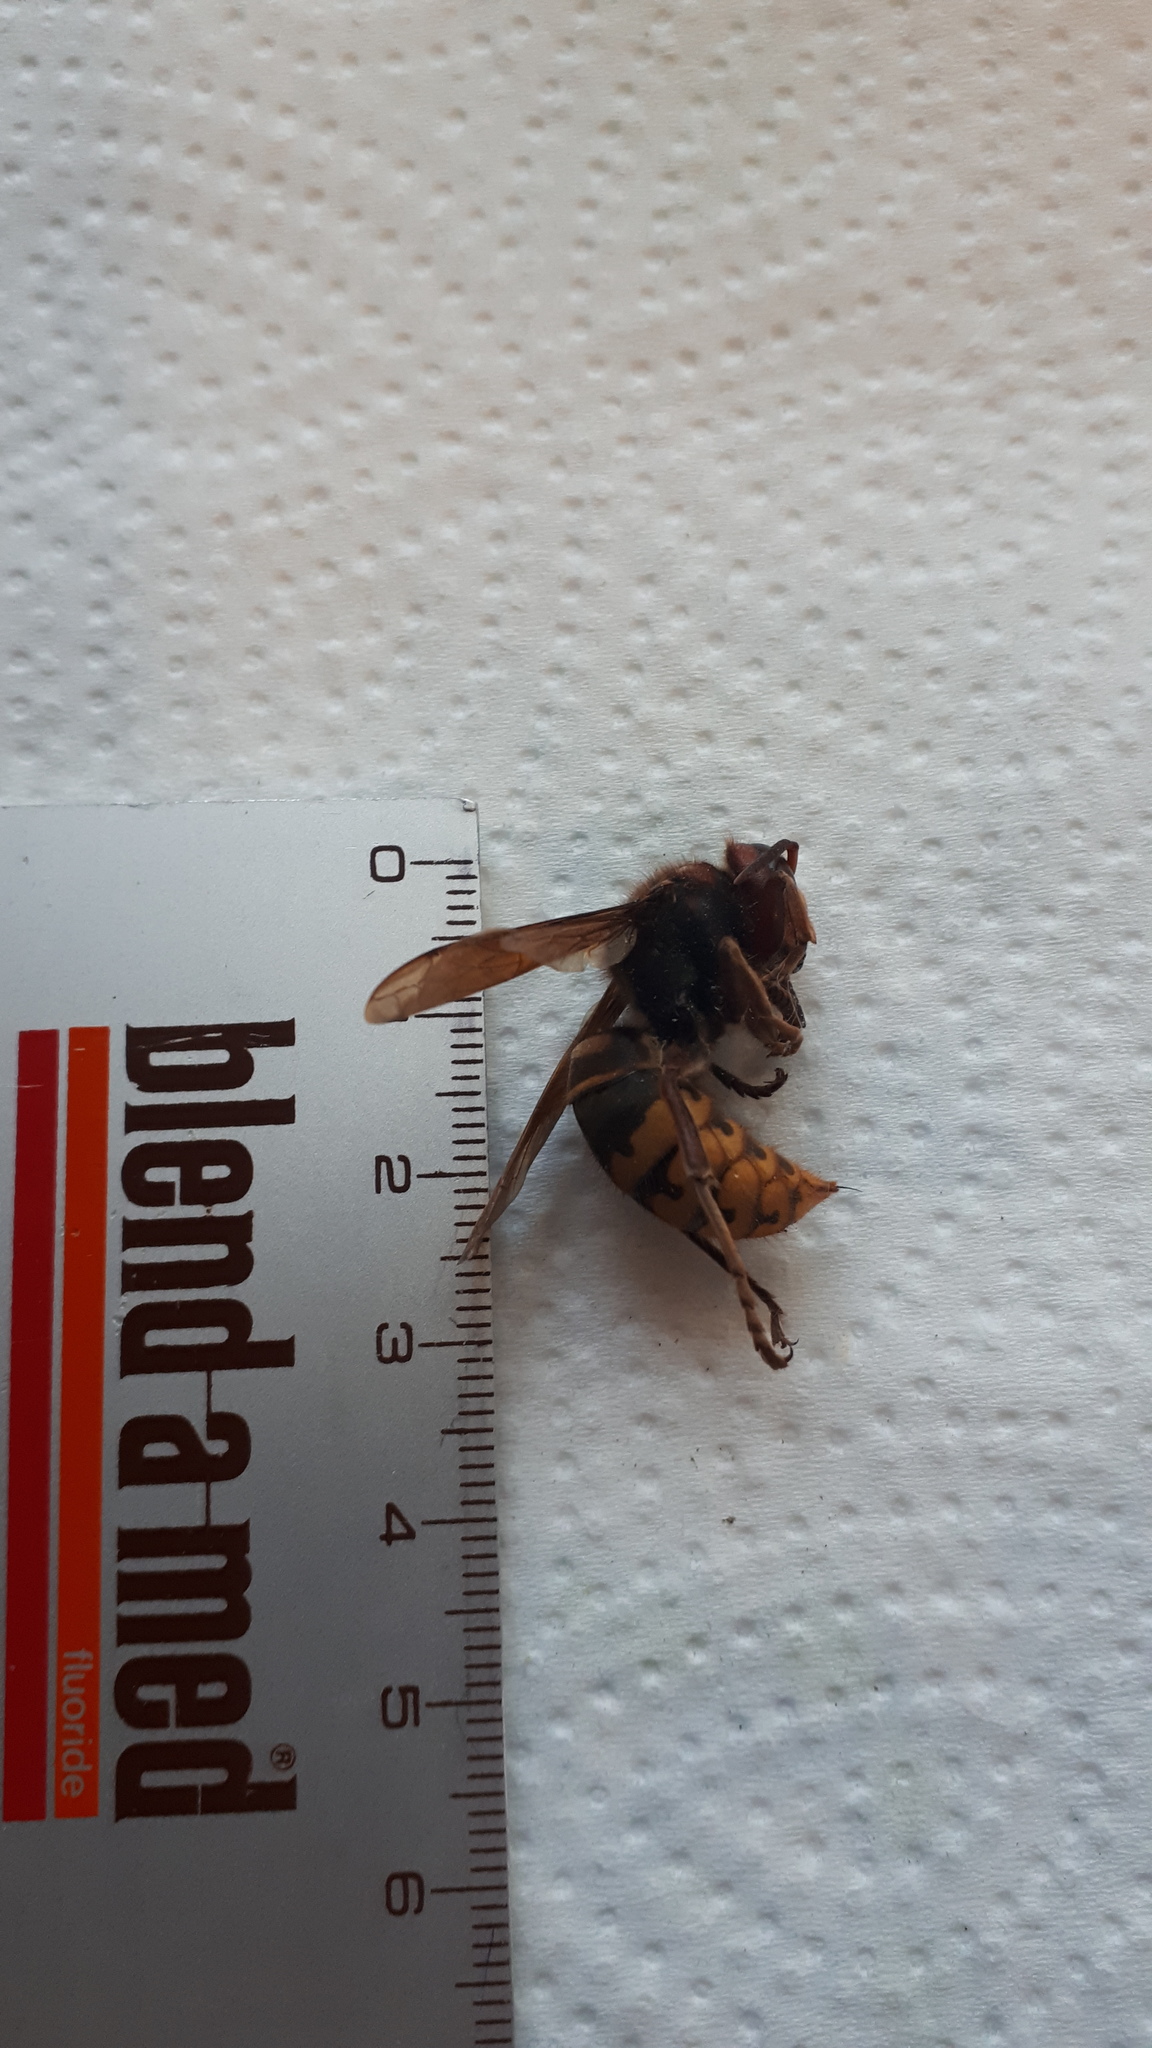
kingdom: Animalia
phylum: Arthropoda
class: Insecta
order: Hymenoptera
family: Vespidae
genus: Vespa
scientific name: Vespa crabro
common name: Hornet
